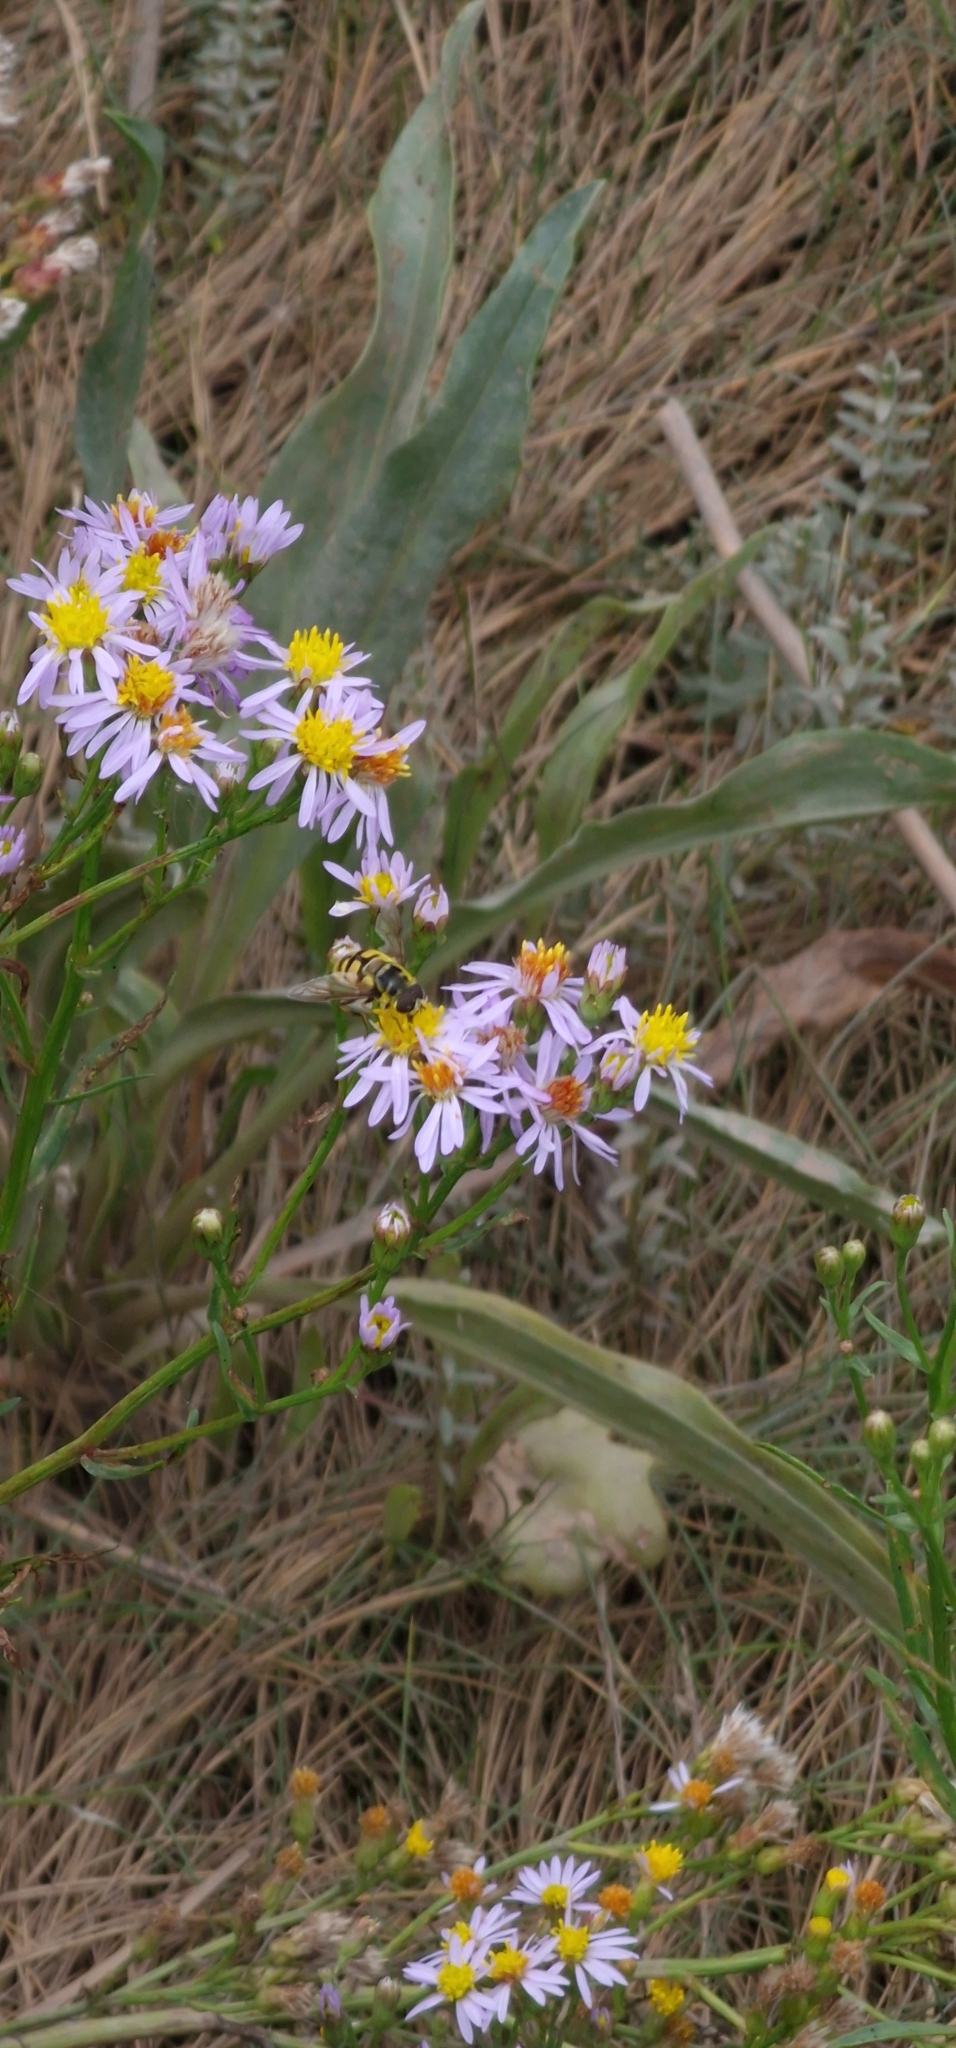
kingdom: Animalia
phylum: Arthropoda
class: Insecta
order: Diptera
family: Syrphidae
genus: Myathropa
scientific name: Myathropa florea
